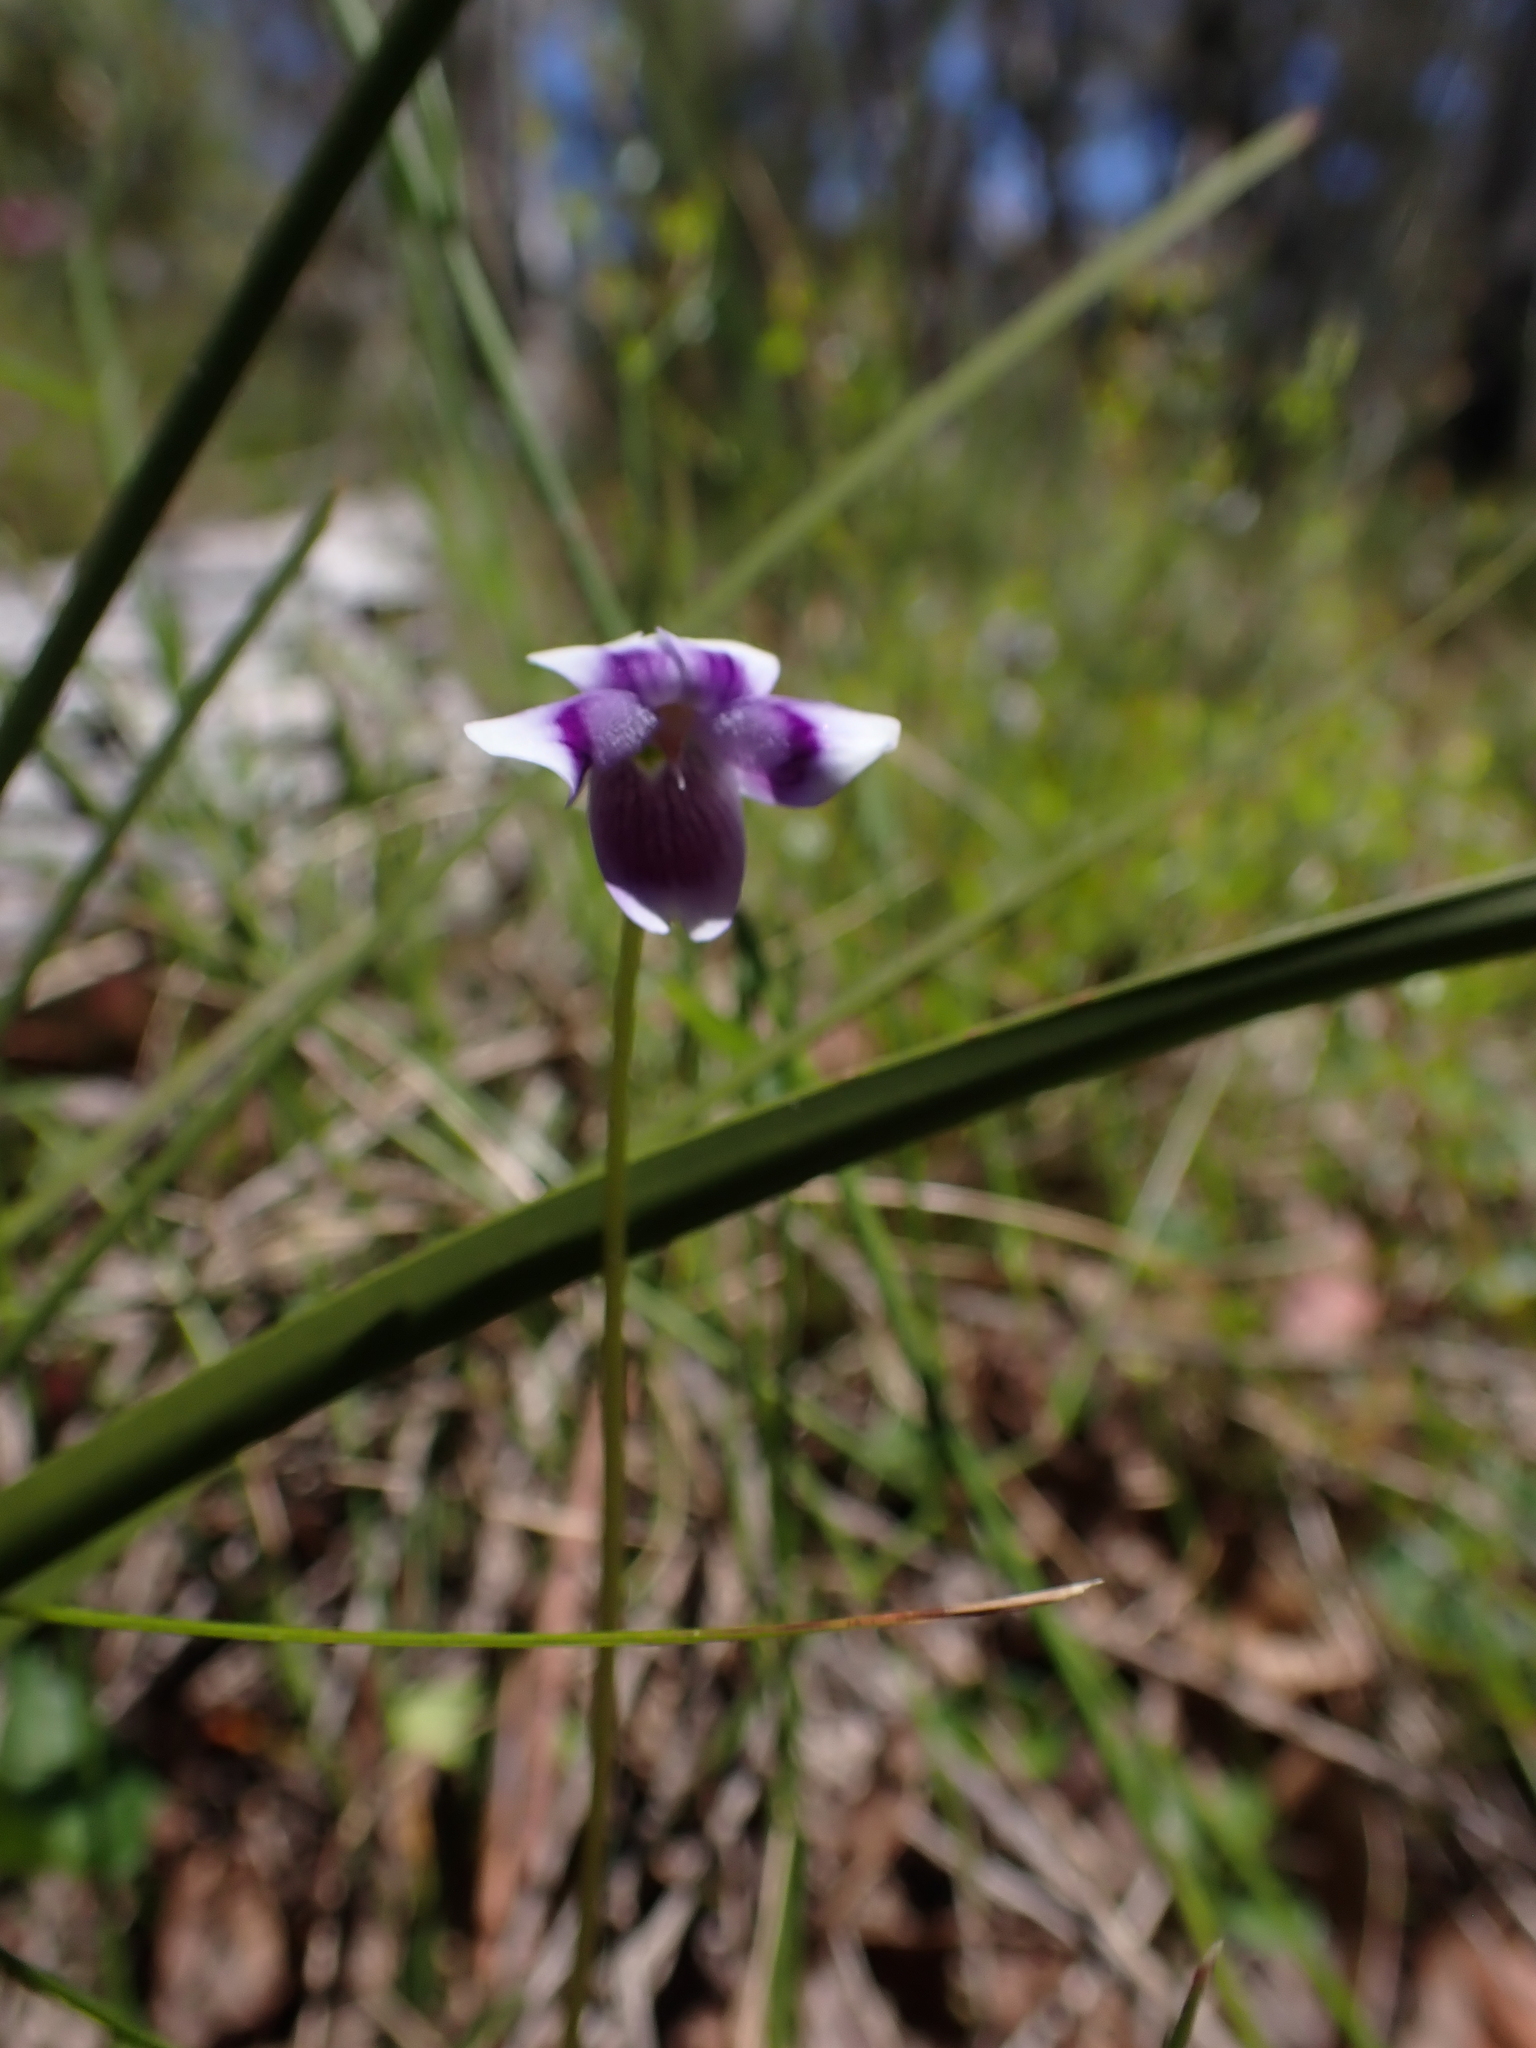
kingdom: Plantae
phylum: Tracheophyta
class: Magnoliopsida
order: Malpighiales
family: Violaceae
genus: Viola
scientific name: Viola eminens
